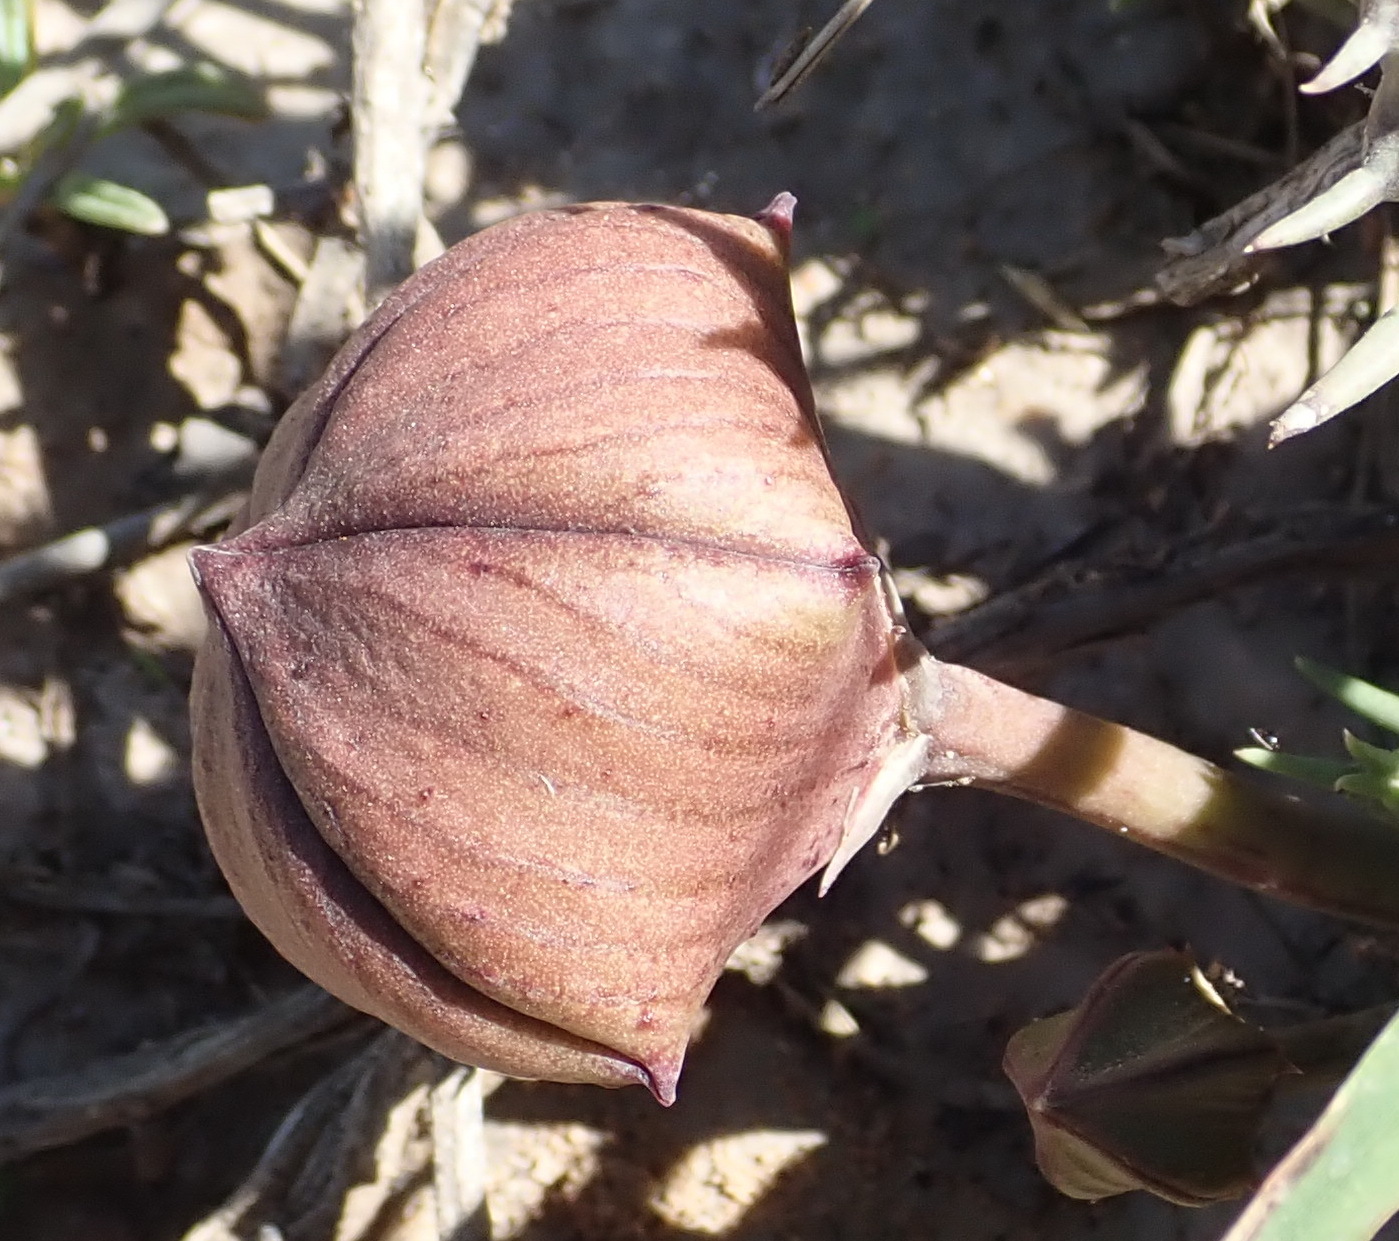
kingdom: Plantae
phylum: Tracheophyta
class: Magnoliopsida
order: Gentianales
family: Apocynaceae
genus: Ceropegia
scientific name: Ceropegia gemmiflora
